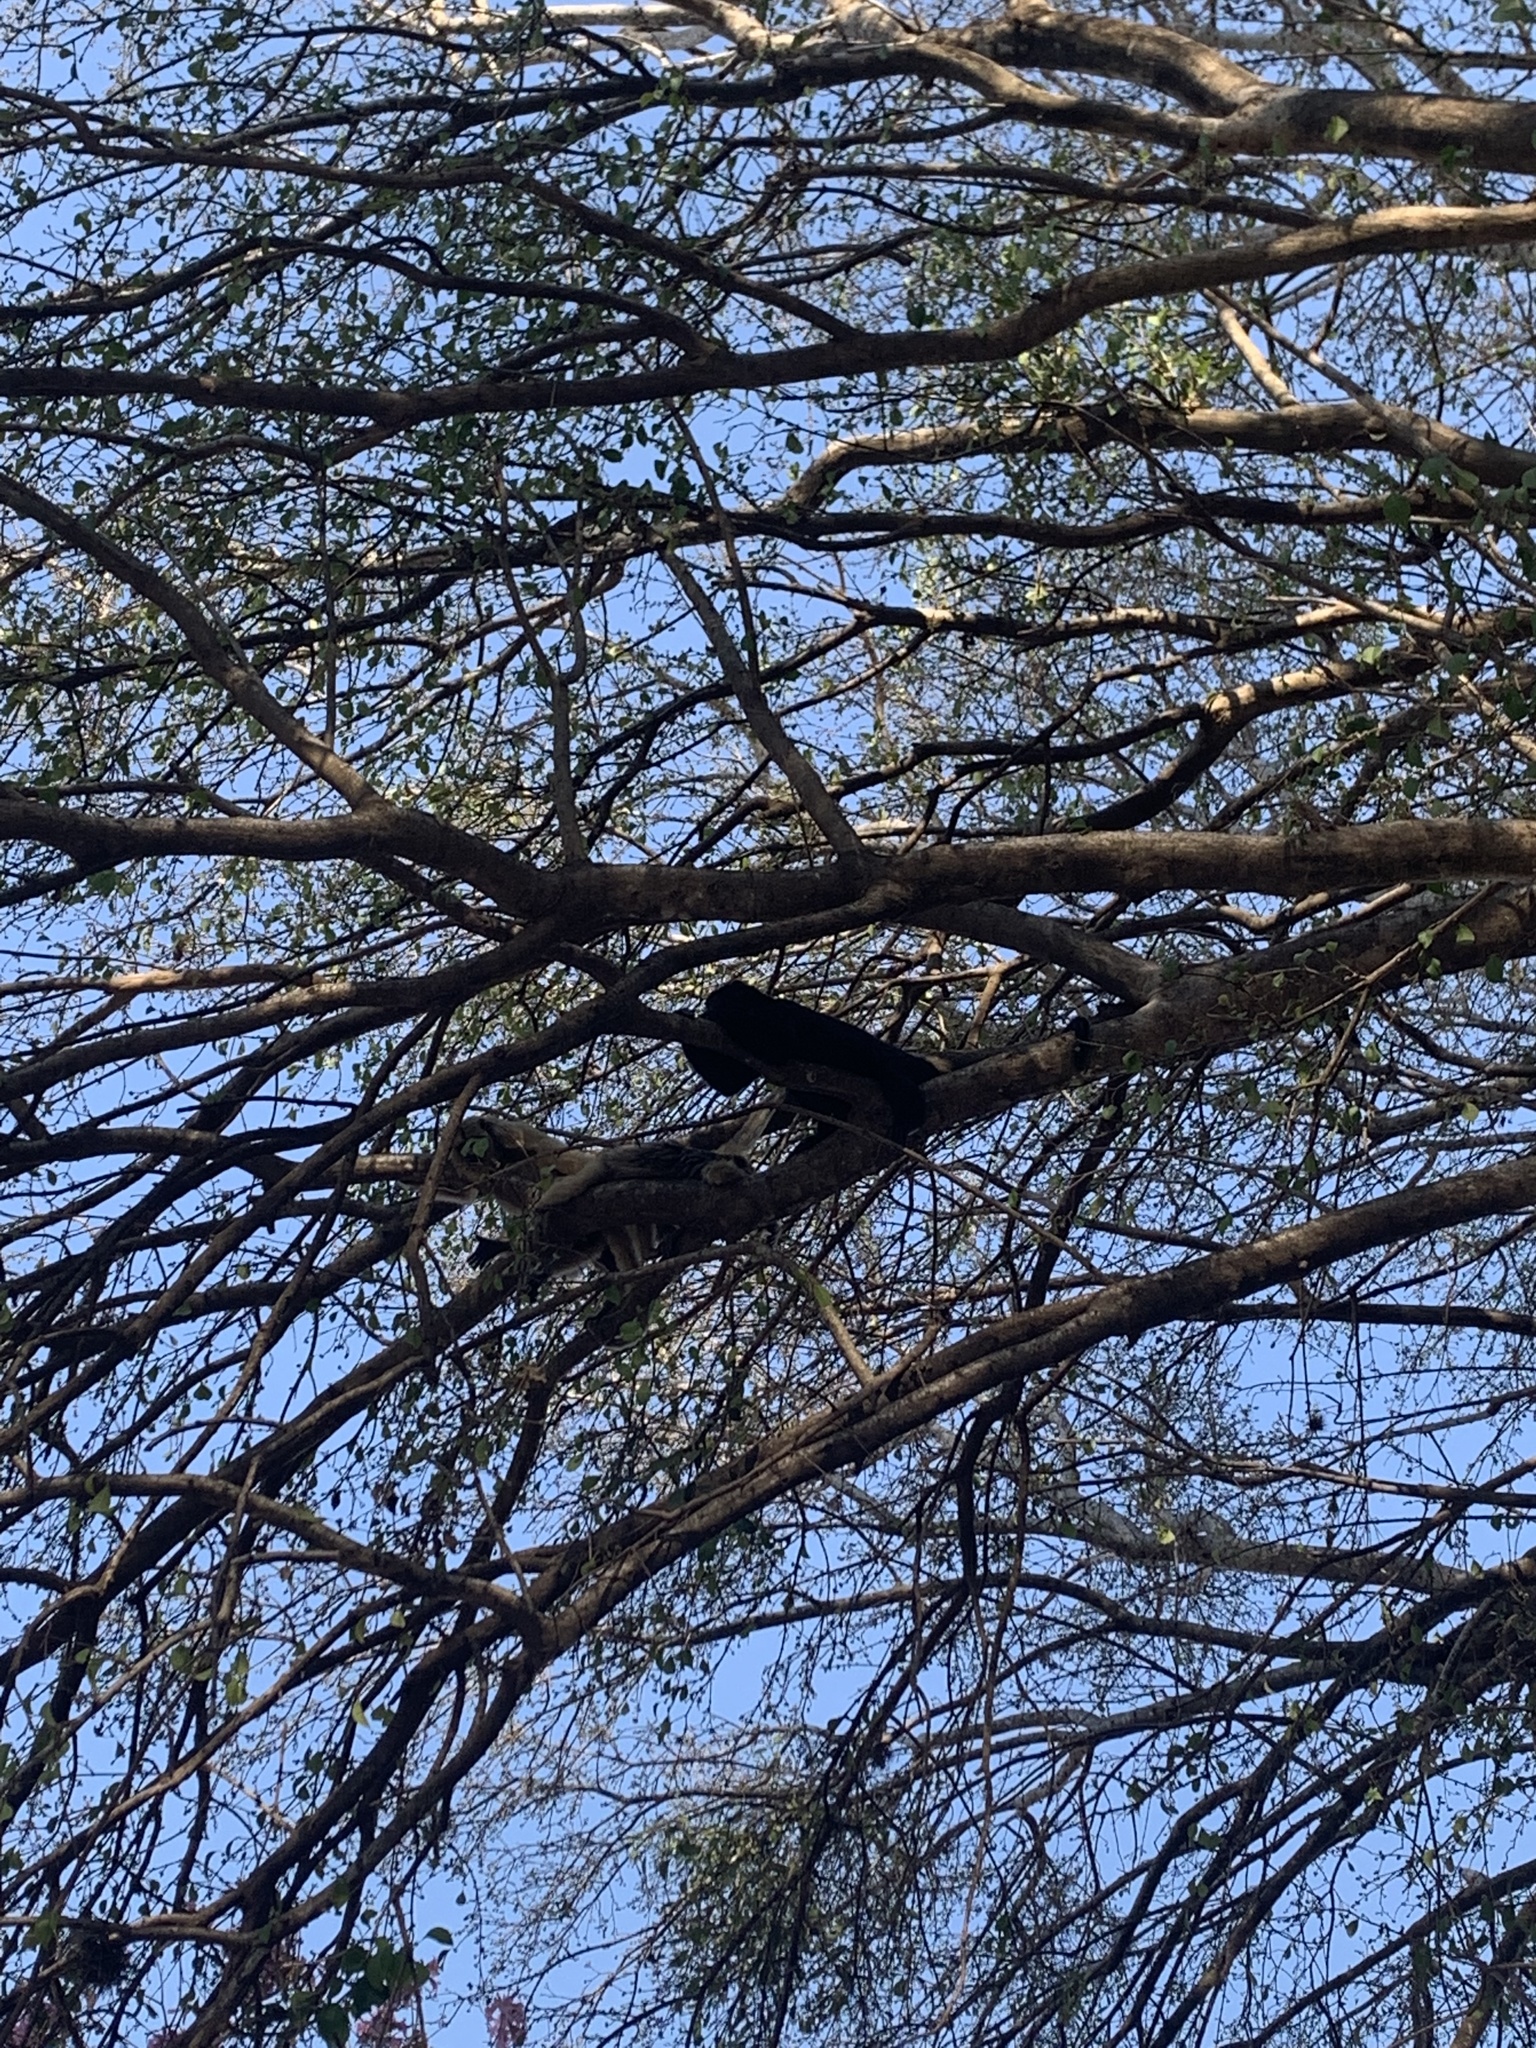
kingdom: Animalia
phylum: Chordata
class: Mammalia
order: Primates
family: Atelidae
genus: Alouatta
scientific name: Alouatta caraya
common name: Black howler
